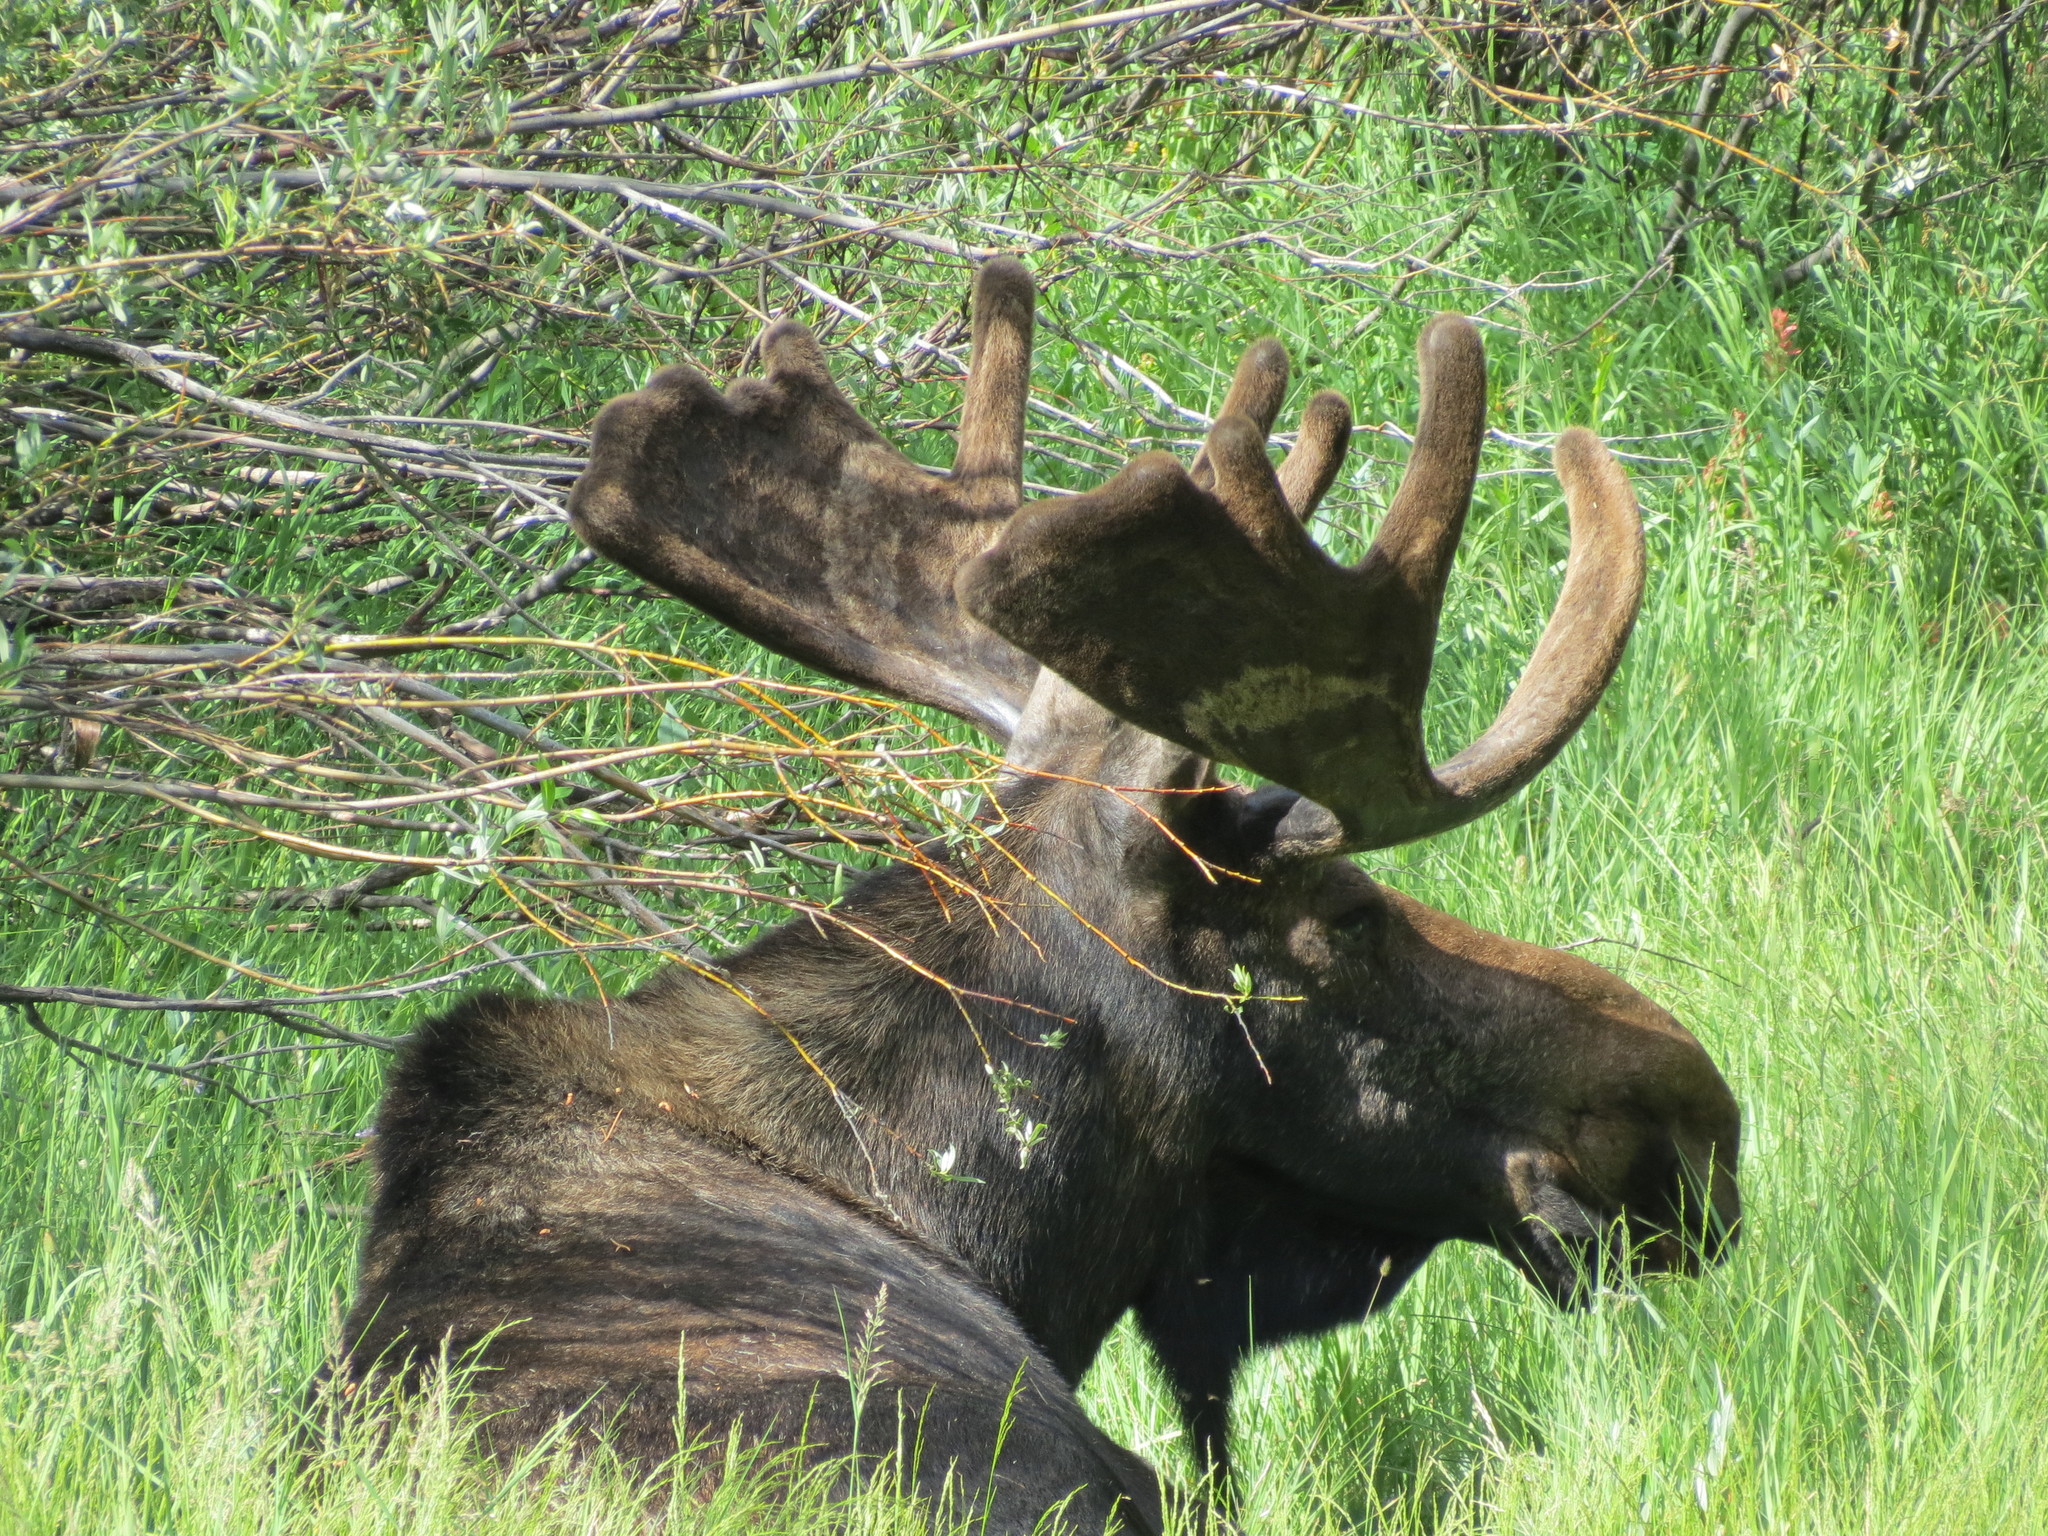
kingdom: Animalia
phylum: Chordata
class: Mammalia
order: Artiodactyla
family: Cervidae
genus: Alces
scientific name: Alces alces
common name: Moose
